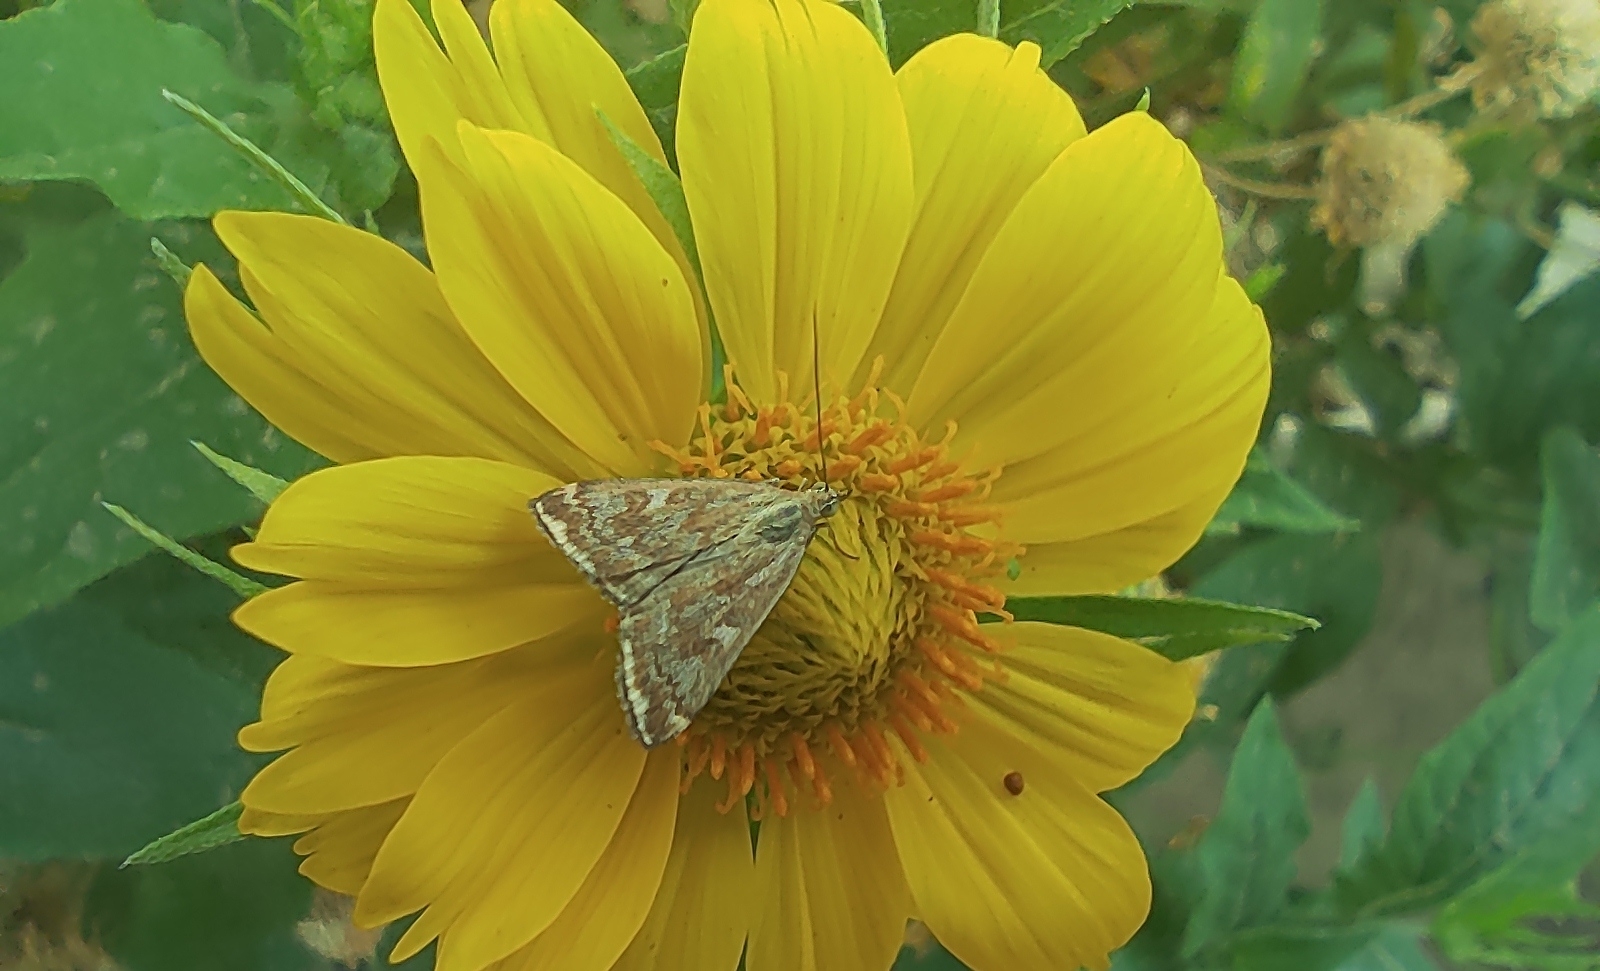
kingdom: Animalia
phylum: Arthropoda
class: Insecta
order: Lepidoptera
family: Crambidae
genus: Loxostege
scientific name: Loxostege sticticalis
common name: Crambid moth
